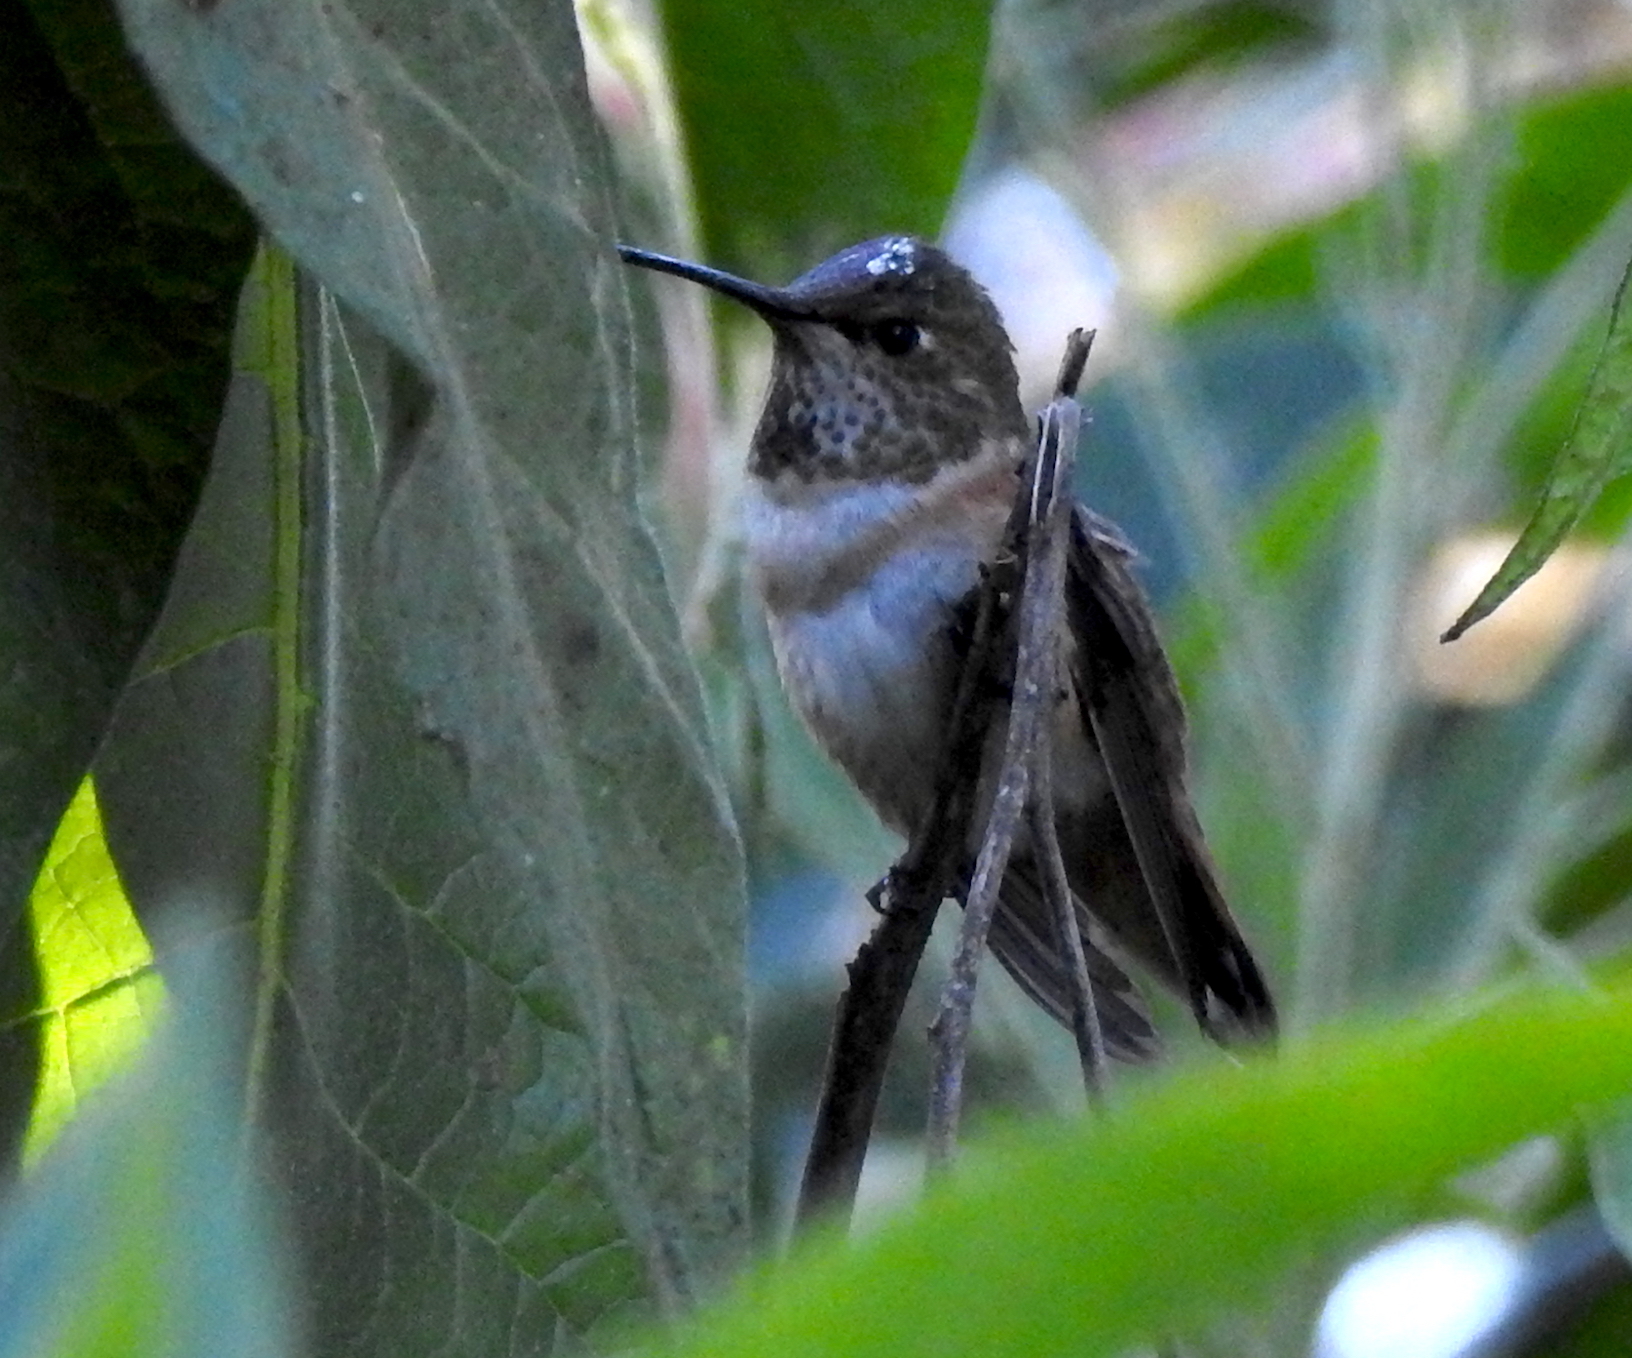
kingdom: Animalia
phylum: Chordata
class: Aves
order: Apodiformes
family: Trochilidae
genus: Selasphorus
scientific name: Selasphorus
